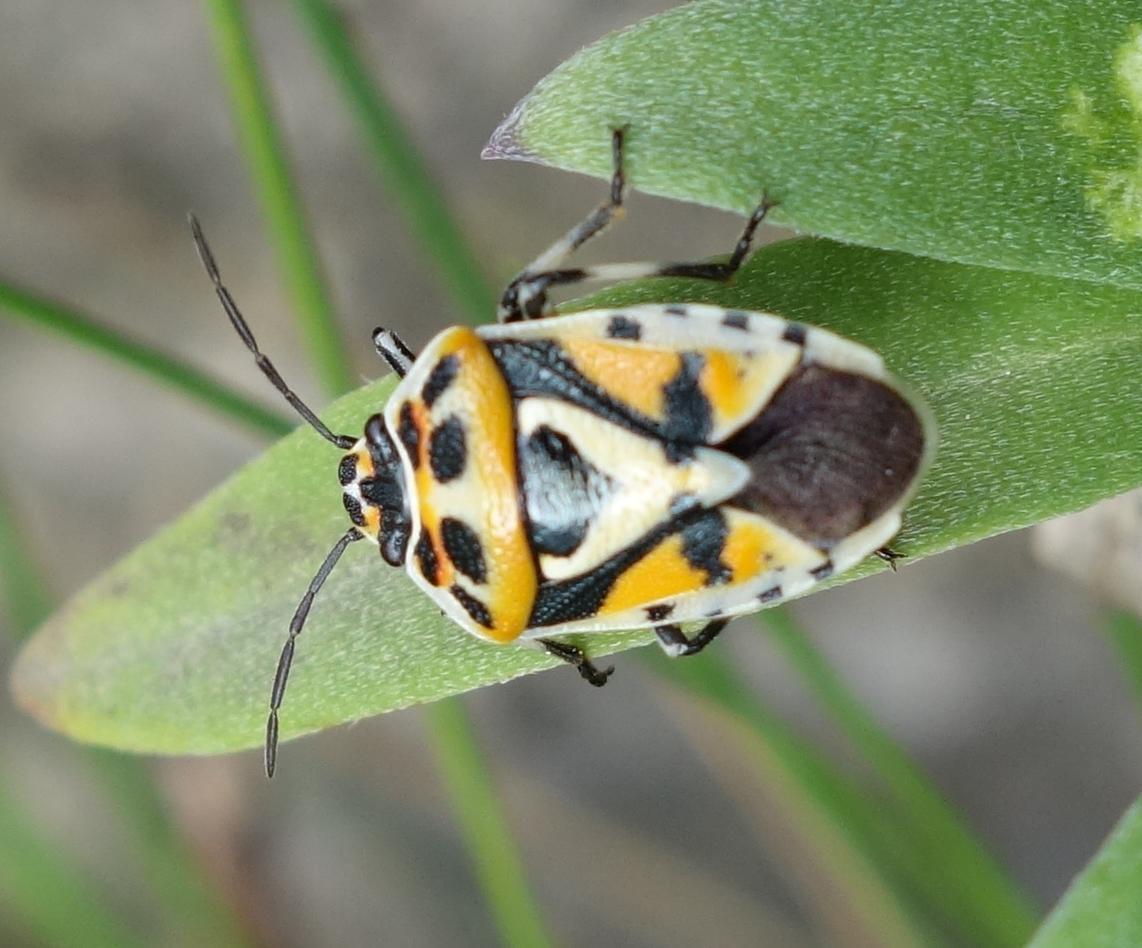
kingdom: Animalia
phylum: Arthropoda
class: Insecta
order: Hemiptera
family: Pentatomidae
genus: Eurydema
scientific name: Eurydema ornata
